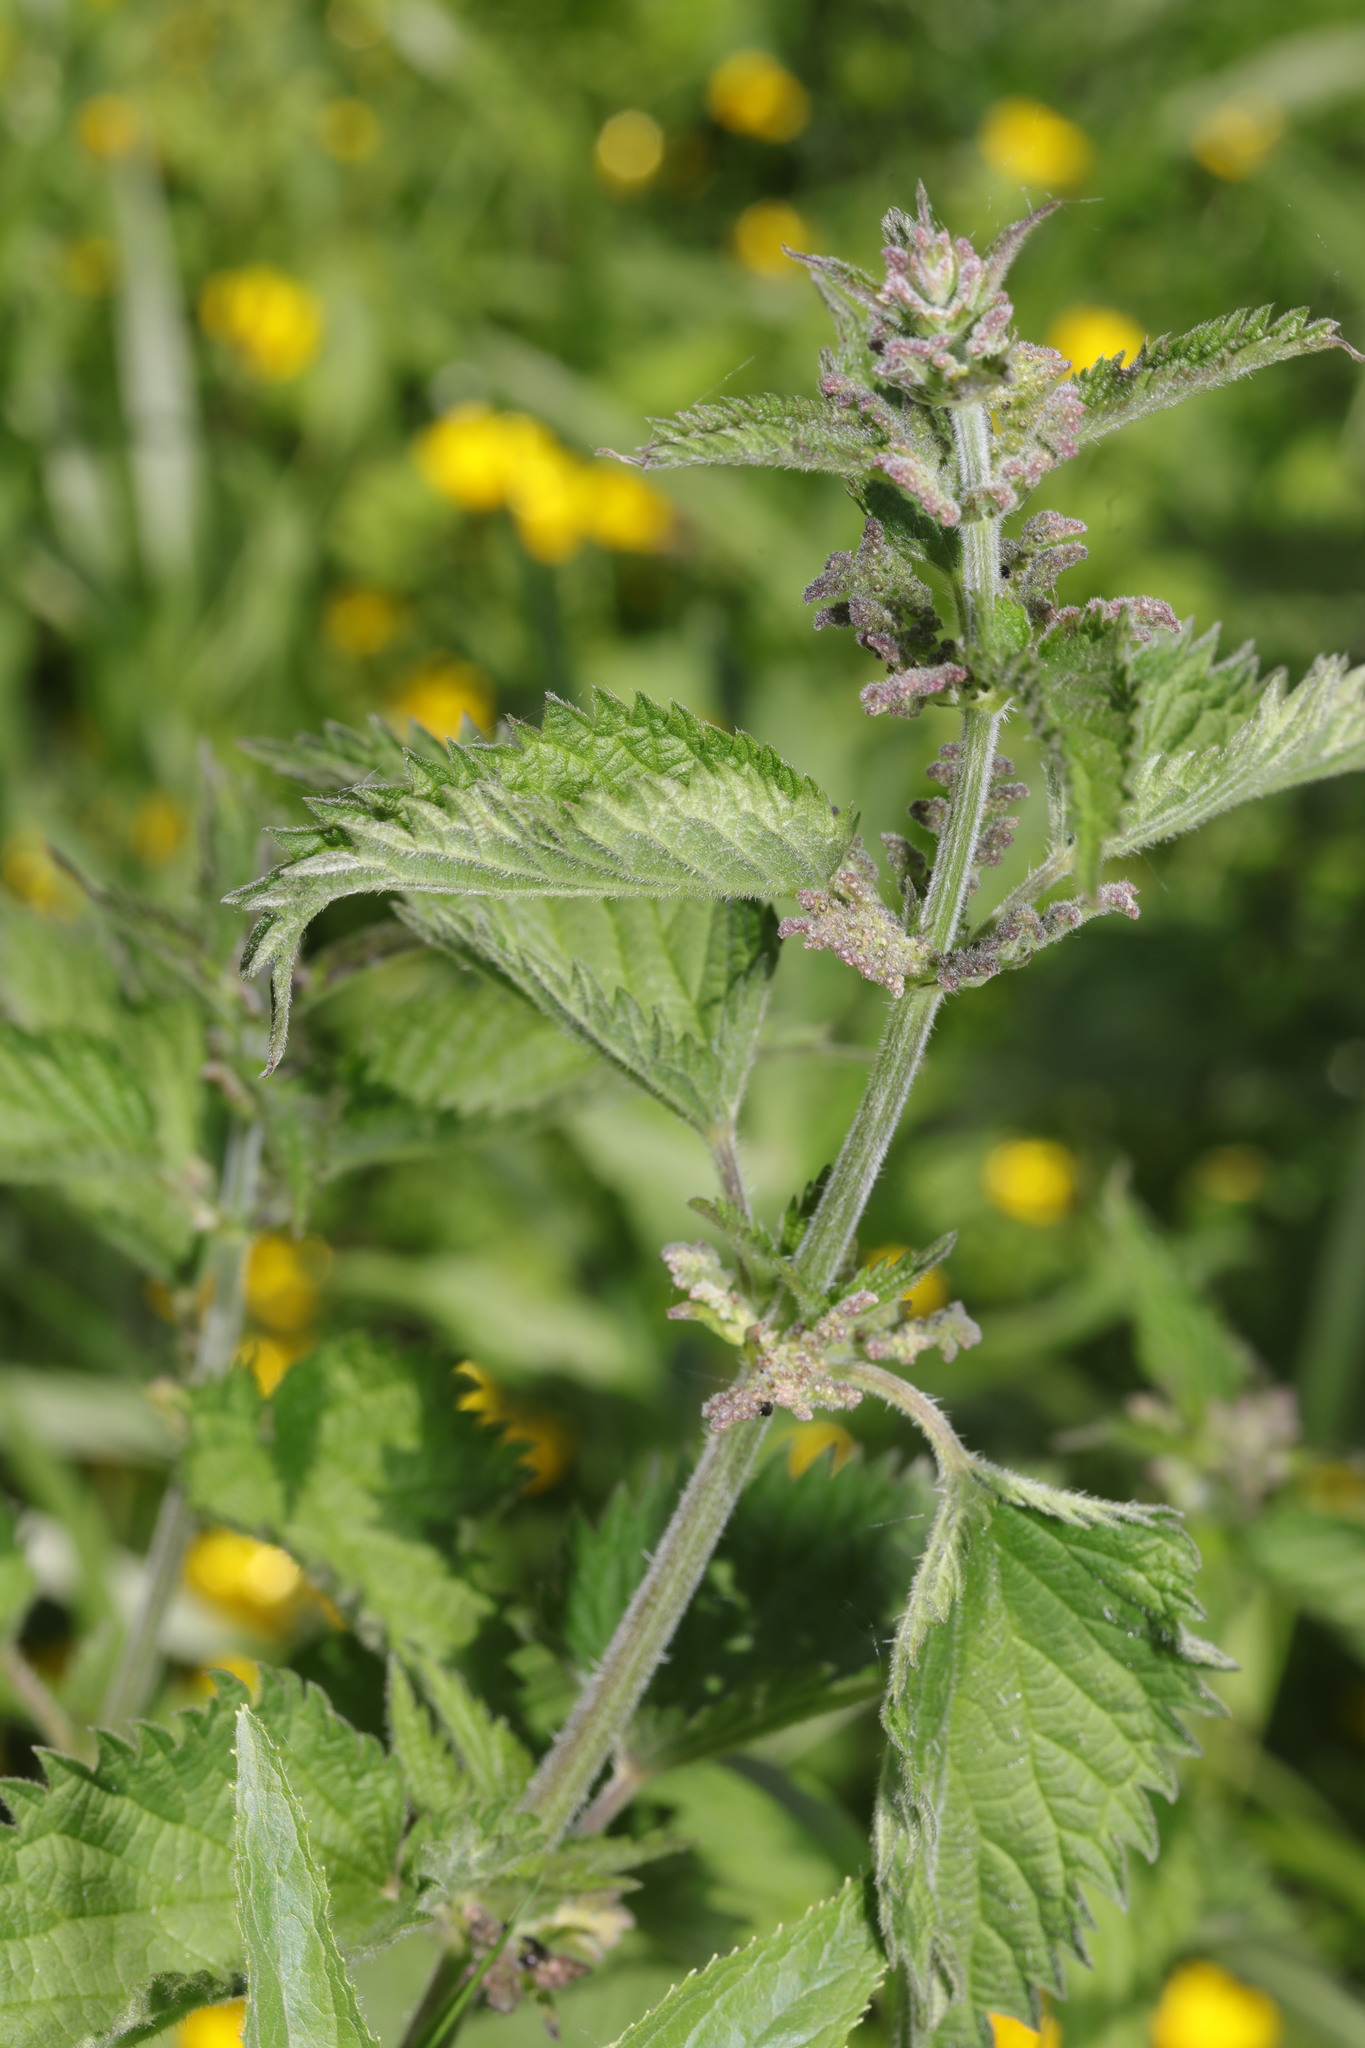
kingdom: Plantae
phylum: Tracheophyta
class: Magnoliopsida
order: Rosales
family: Urticaceae
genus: Urtica
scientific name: Urtica dioica
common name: Common nettle
